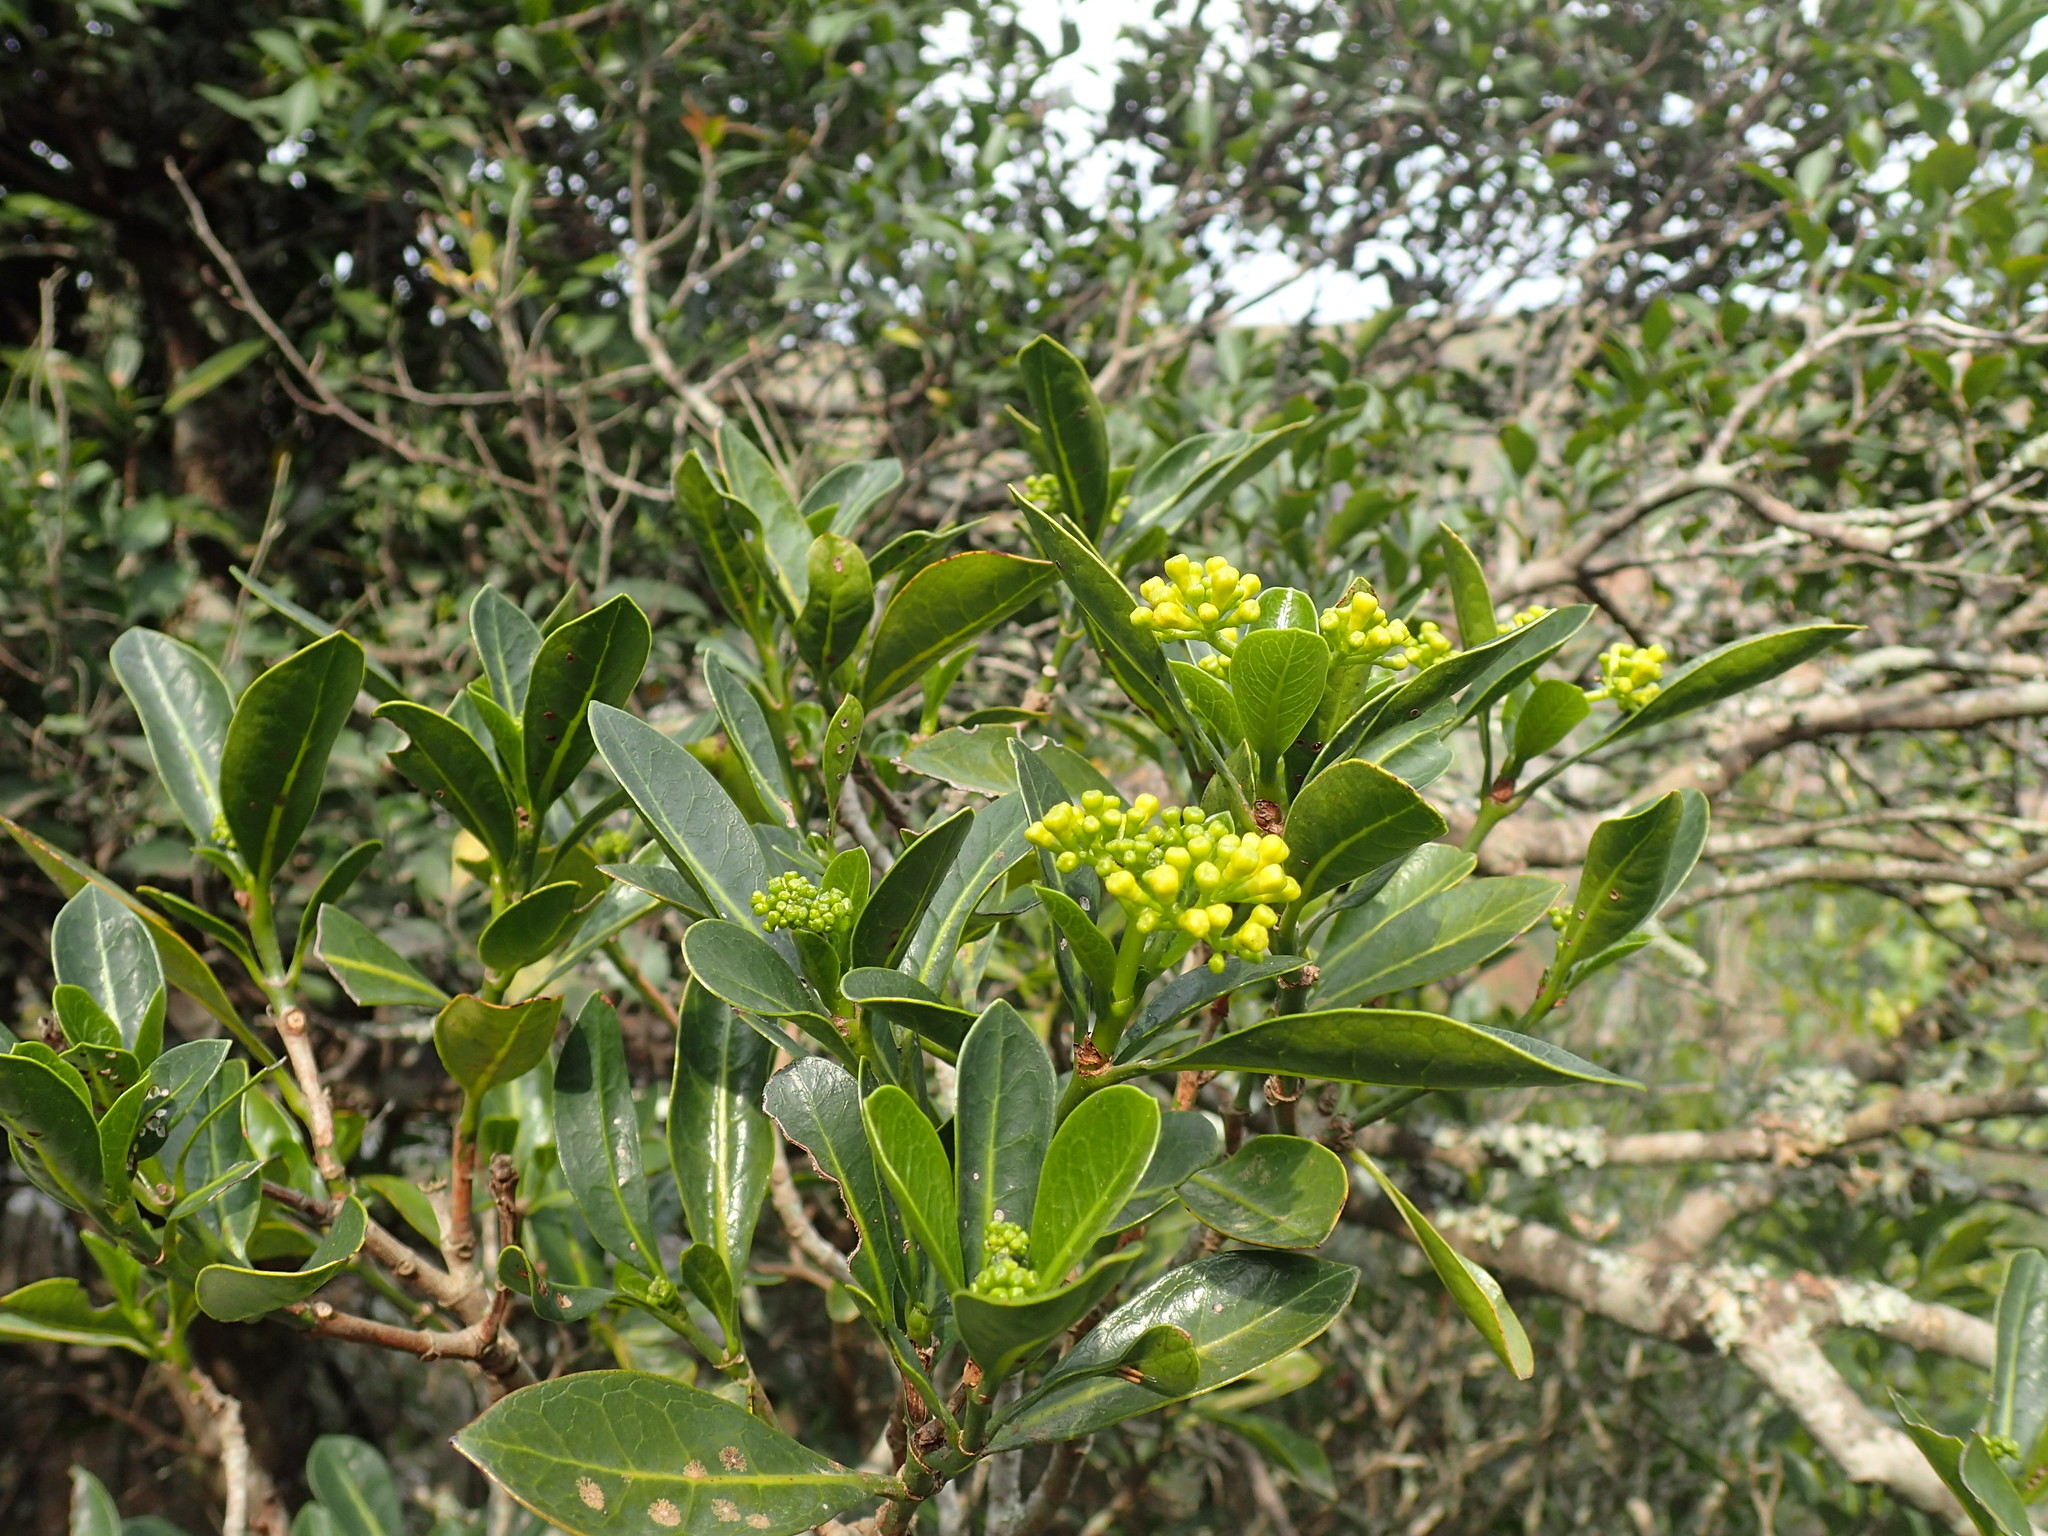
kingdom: Plantae
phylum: Tracheophyta
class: Magnoliopsida
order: Gentianales
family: Rubiaceae
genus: Psychotria
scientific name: Psychotria capensis
